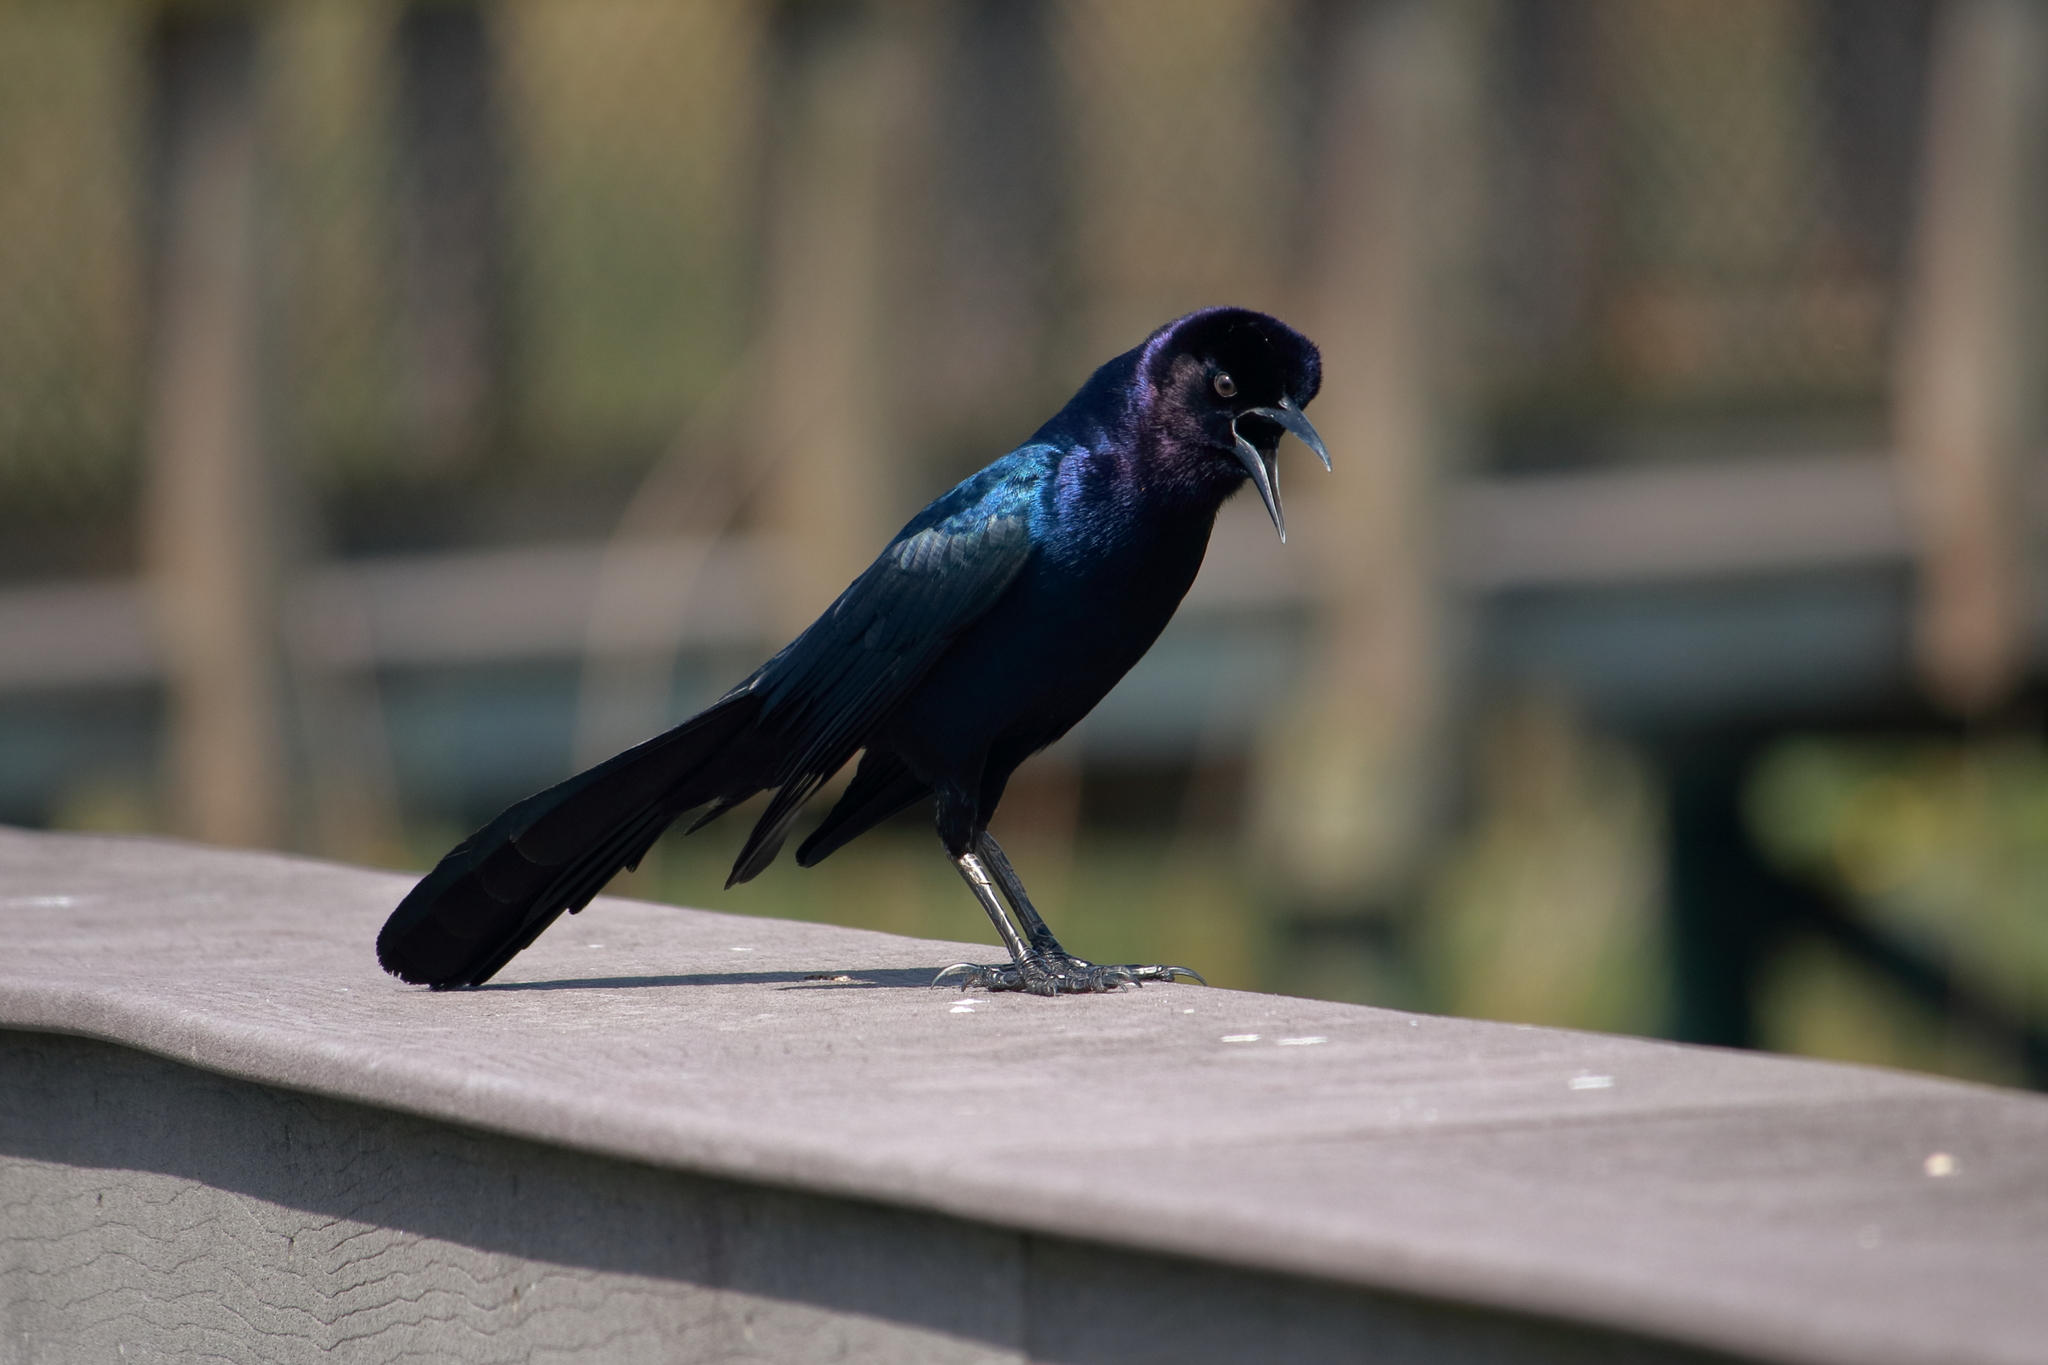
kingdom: Animalia
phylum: Chordata
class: Aves
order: Passeriformes
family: Icteridae
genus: Quiscalus
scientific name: Quiscalus major
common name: Boat-tailed grackle
